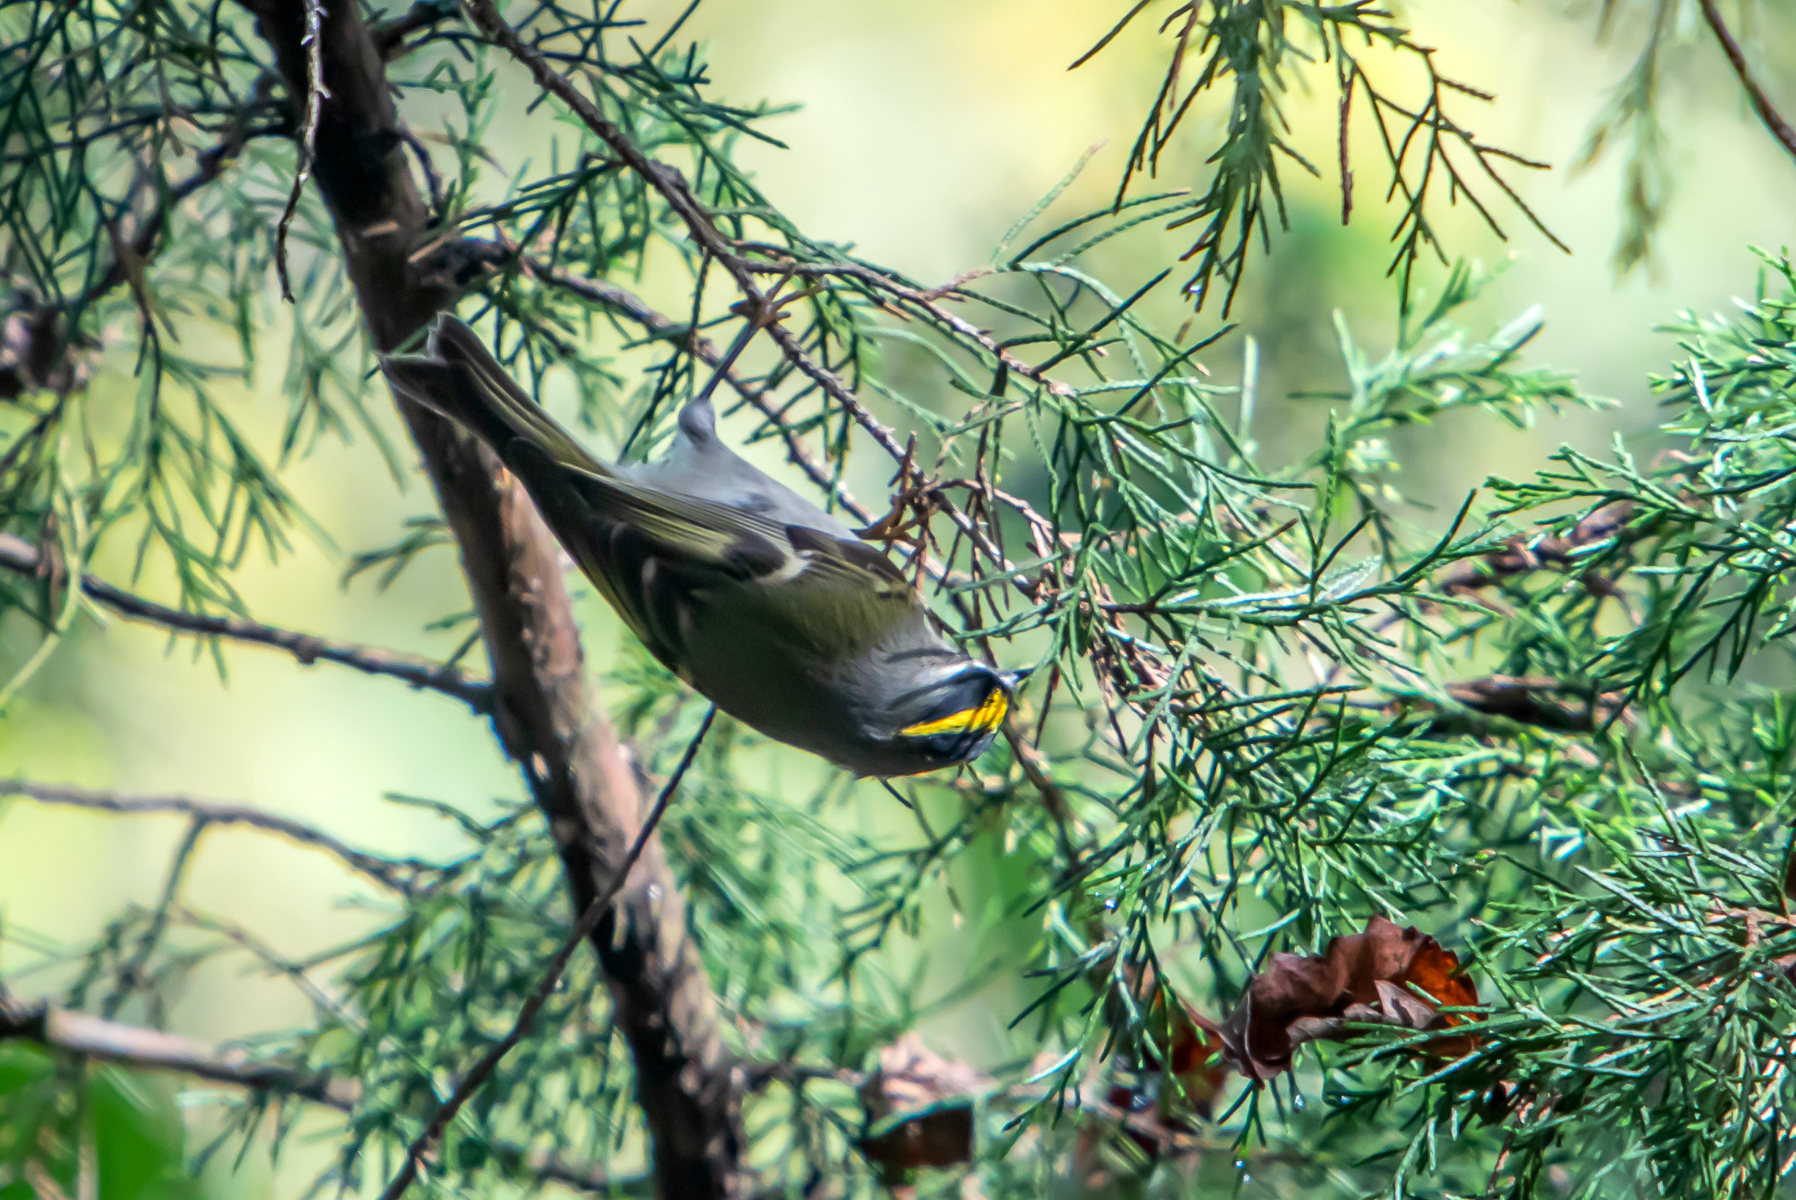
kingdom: Animalia
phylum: Chordata
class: Aves
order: Passeriformes
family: Regulidae
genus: Regulus
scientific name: Regulus satrapa
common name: Golden-crowned kinglet
